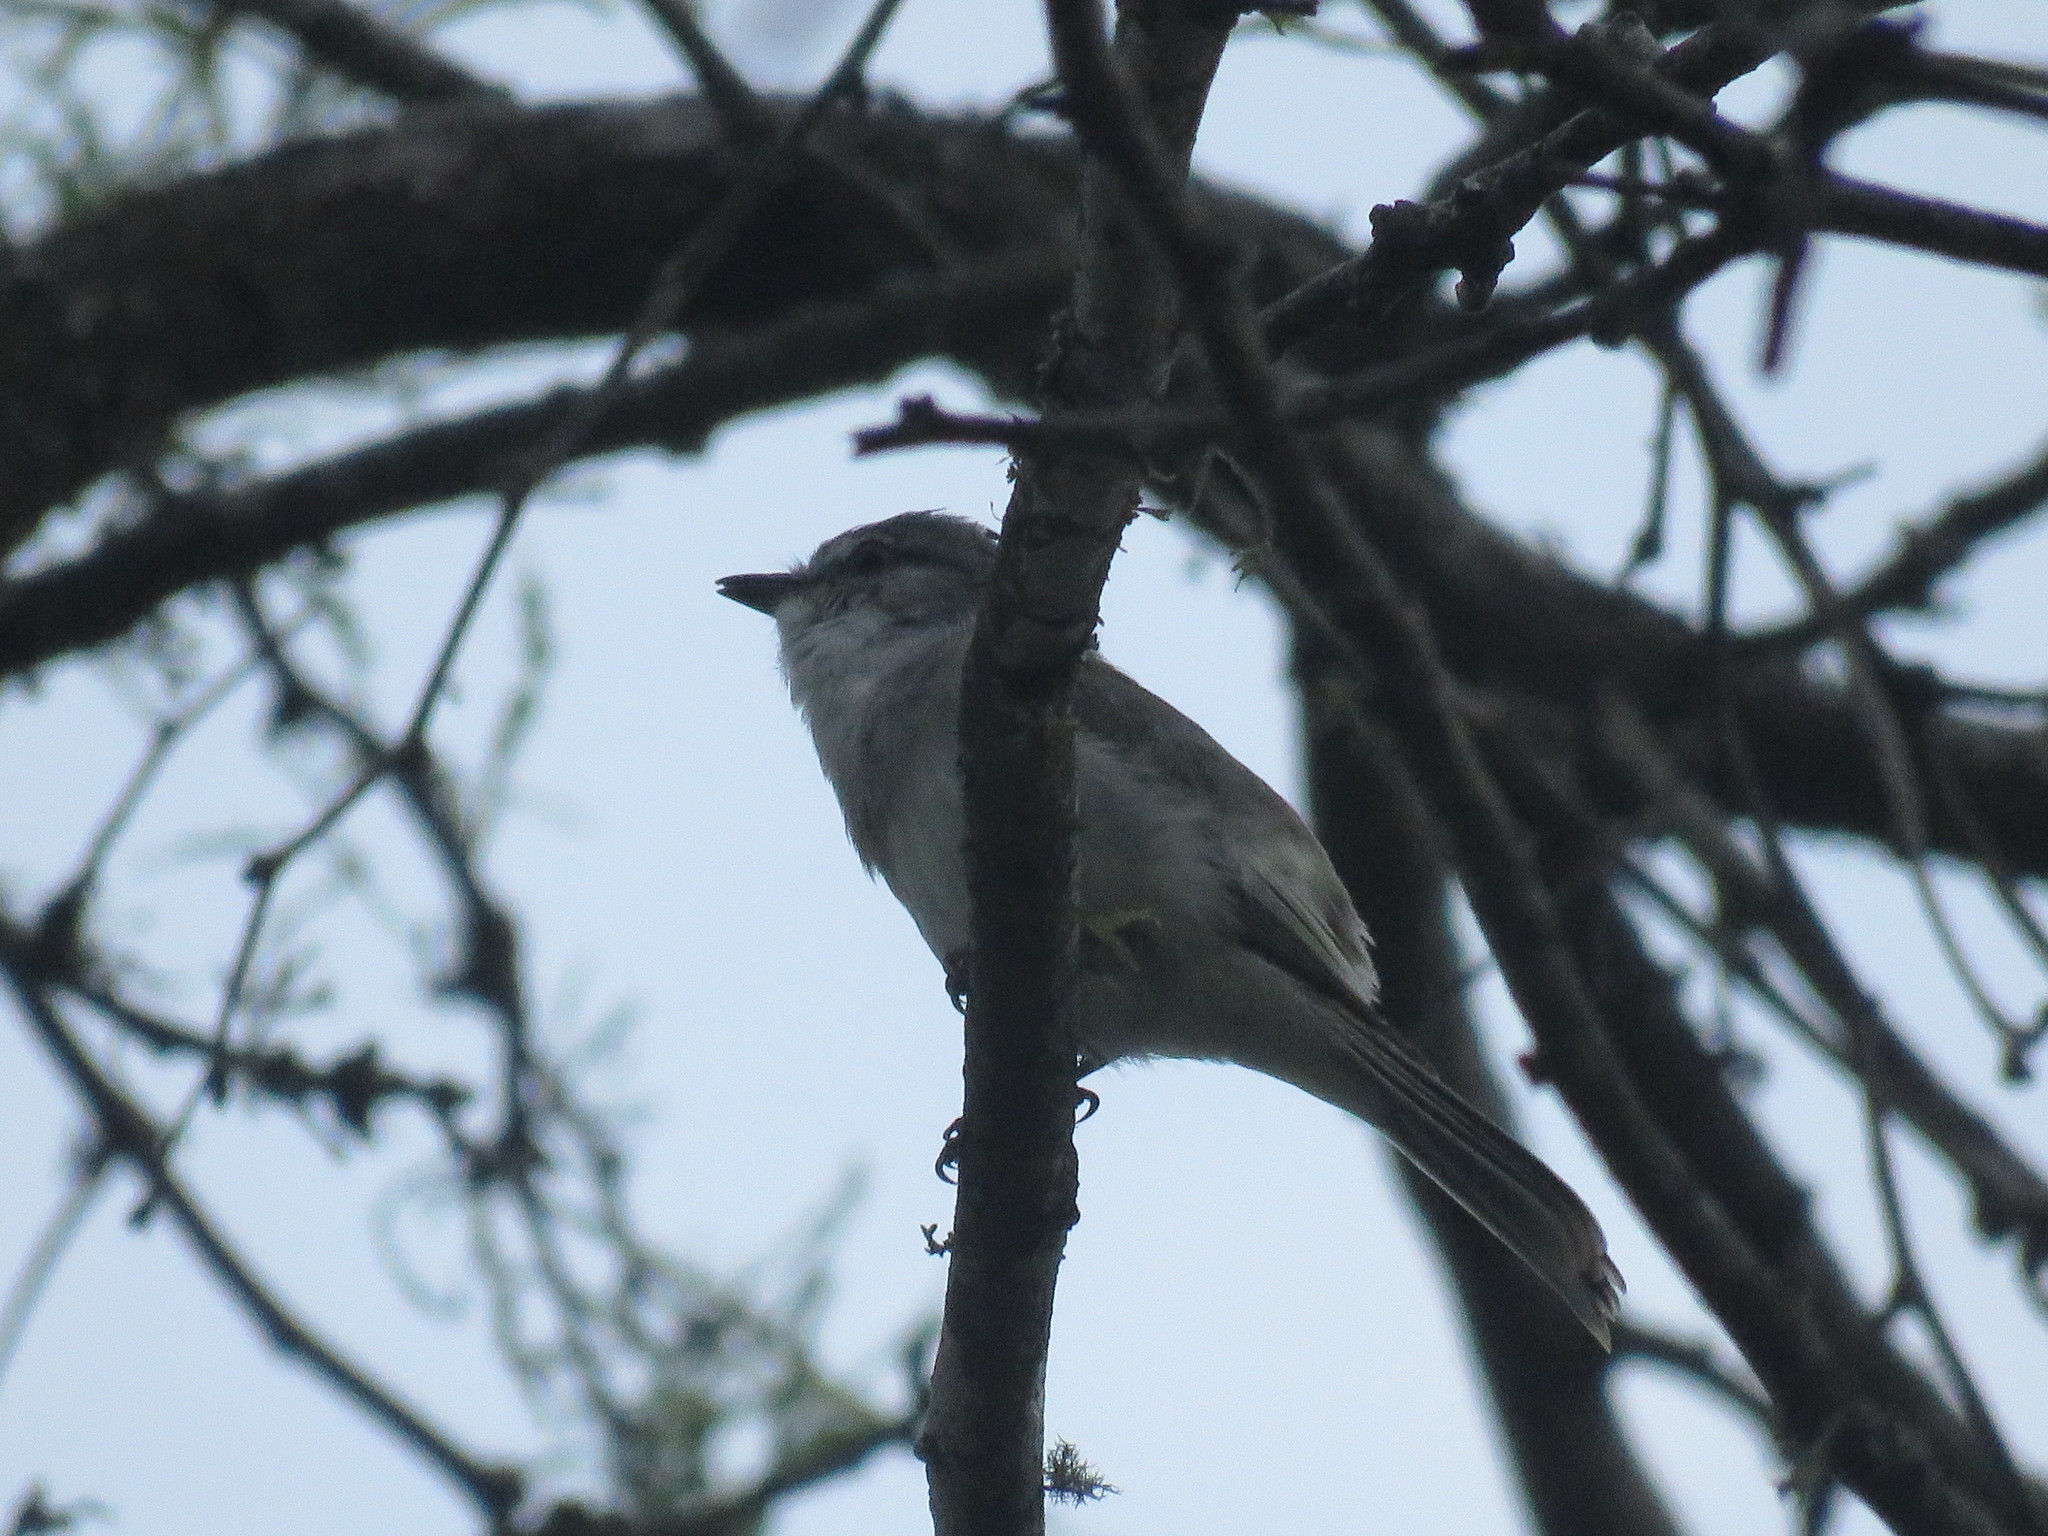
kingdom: Animalia
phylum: Chordata
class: Aves
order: Passeriformes
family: Tyrannidae
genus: Suiriri
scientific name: Suiriri suiriri
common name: Suiriri flycatcher
